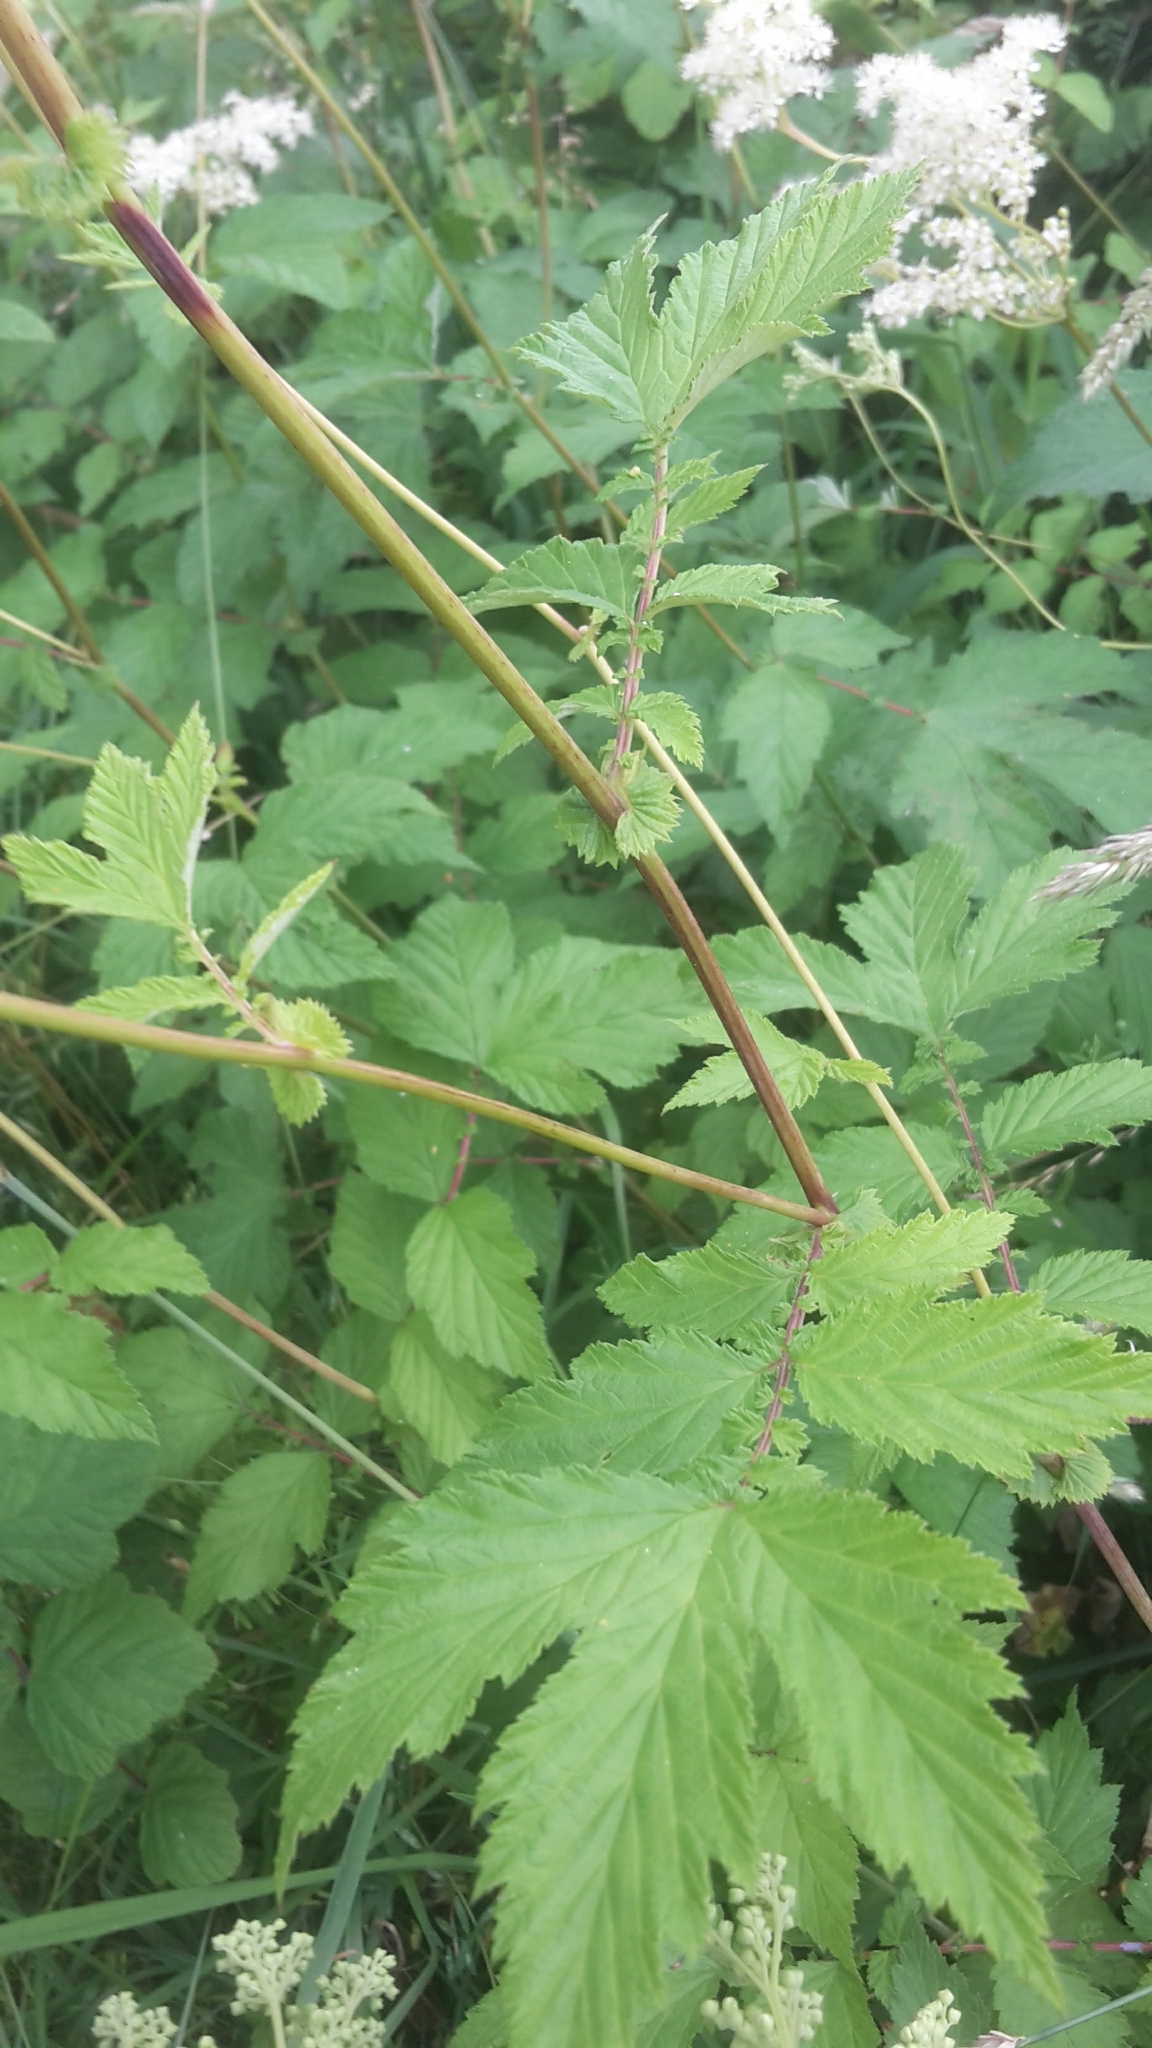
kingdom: Plantae
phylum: Tracheophyta
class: Magnoliopsida
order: Rosales
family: Rosaceae
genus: Filipendula
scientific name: Filipendula ulmaria
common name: Meadowsweet
